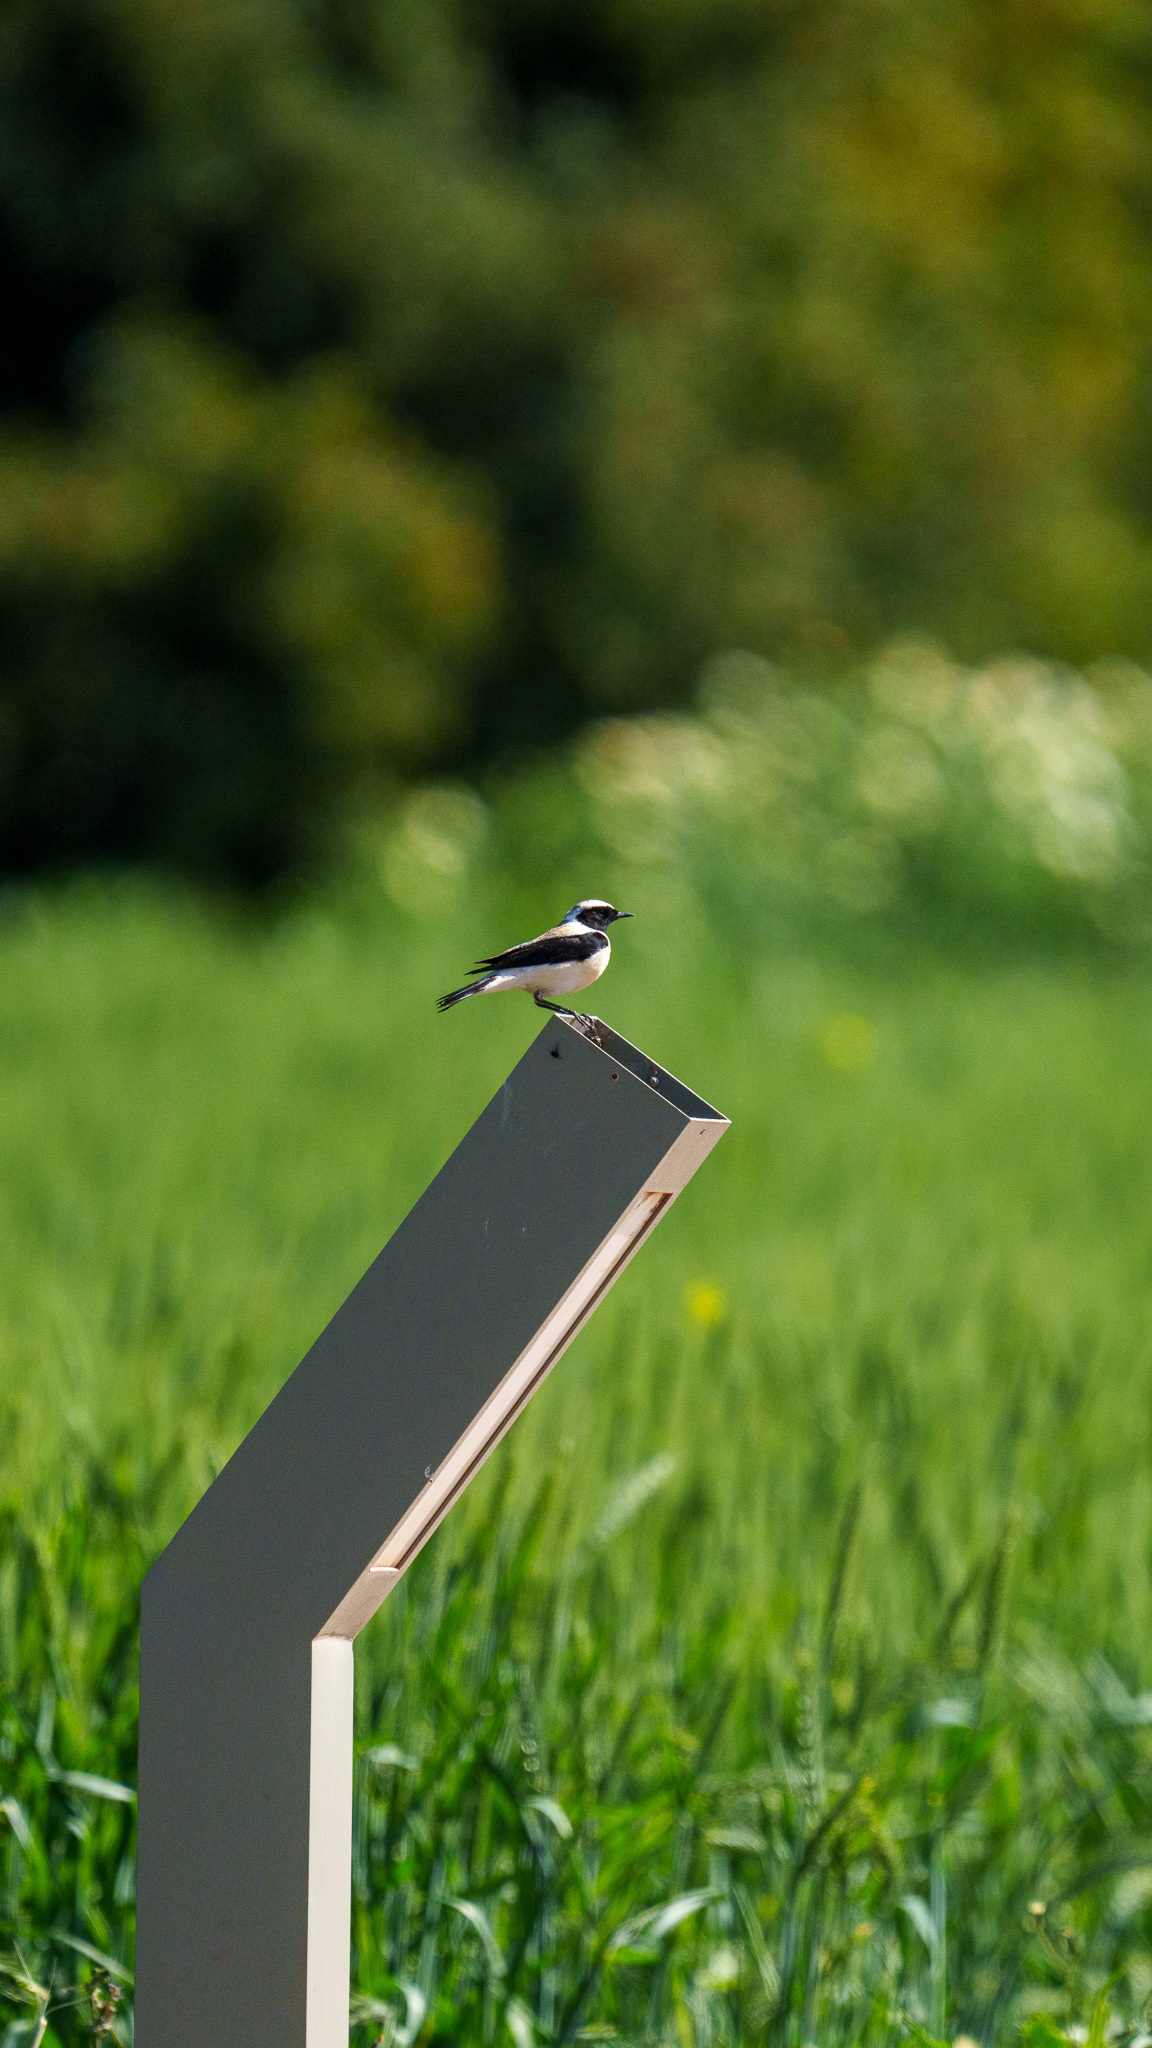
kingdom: Animalia
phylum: Chordata
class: Aves
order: Passeriformes
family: Muscicapidae
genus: Oenanthe
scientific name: Oenanthe hispanica
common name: Black-eared wheatear
